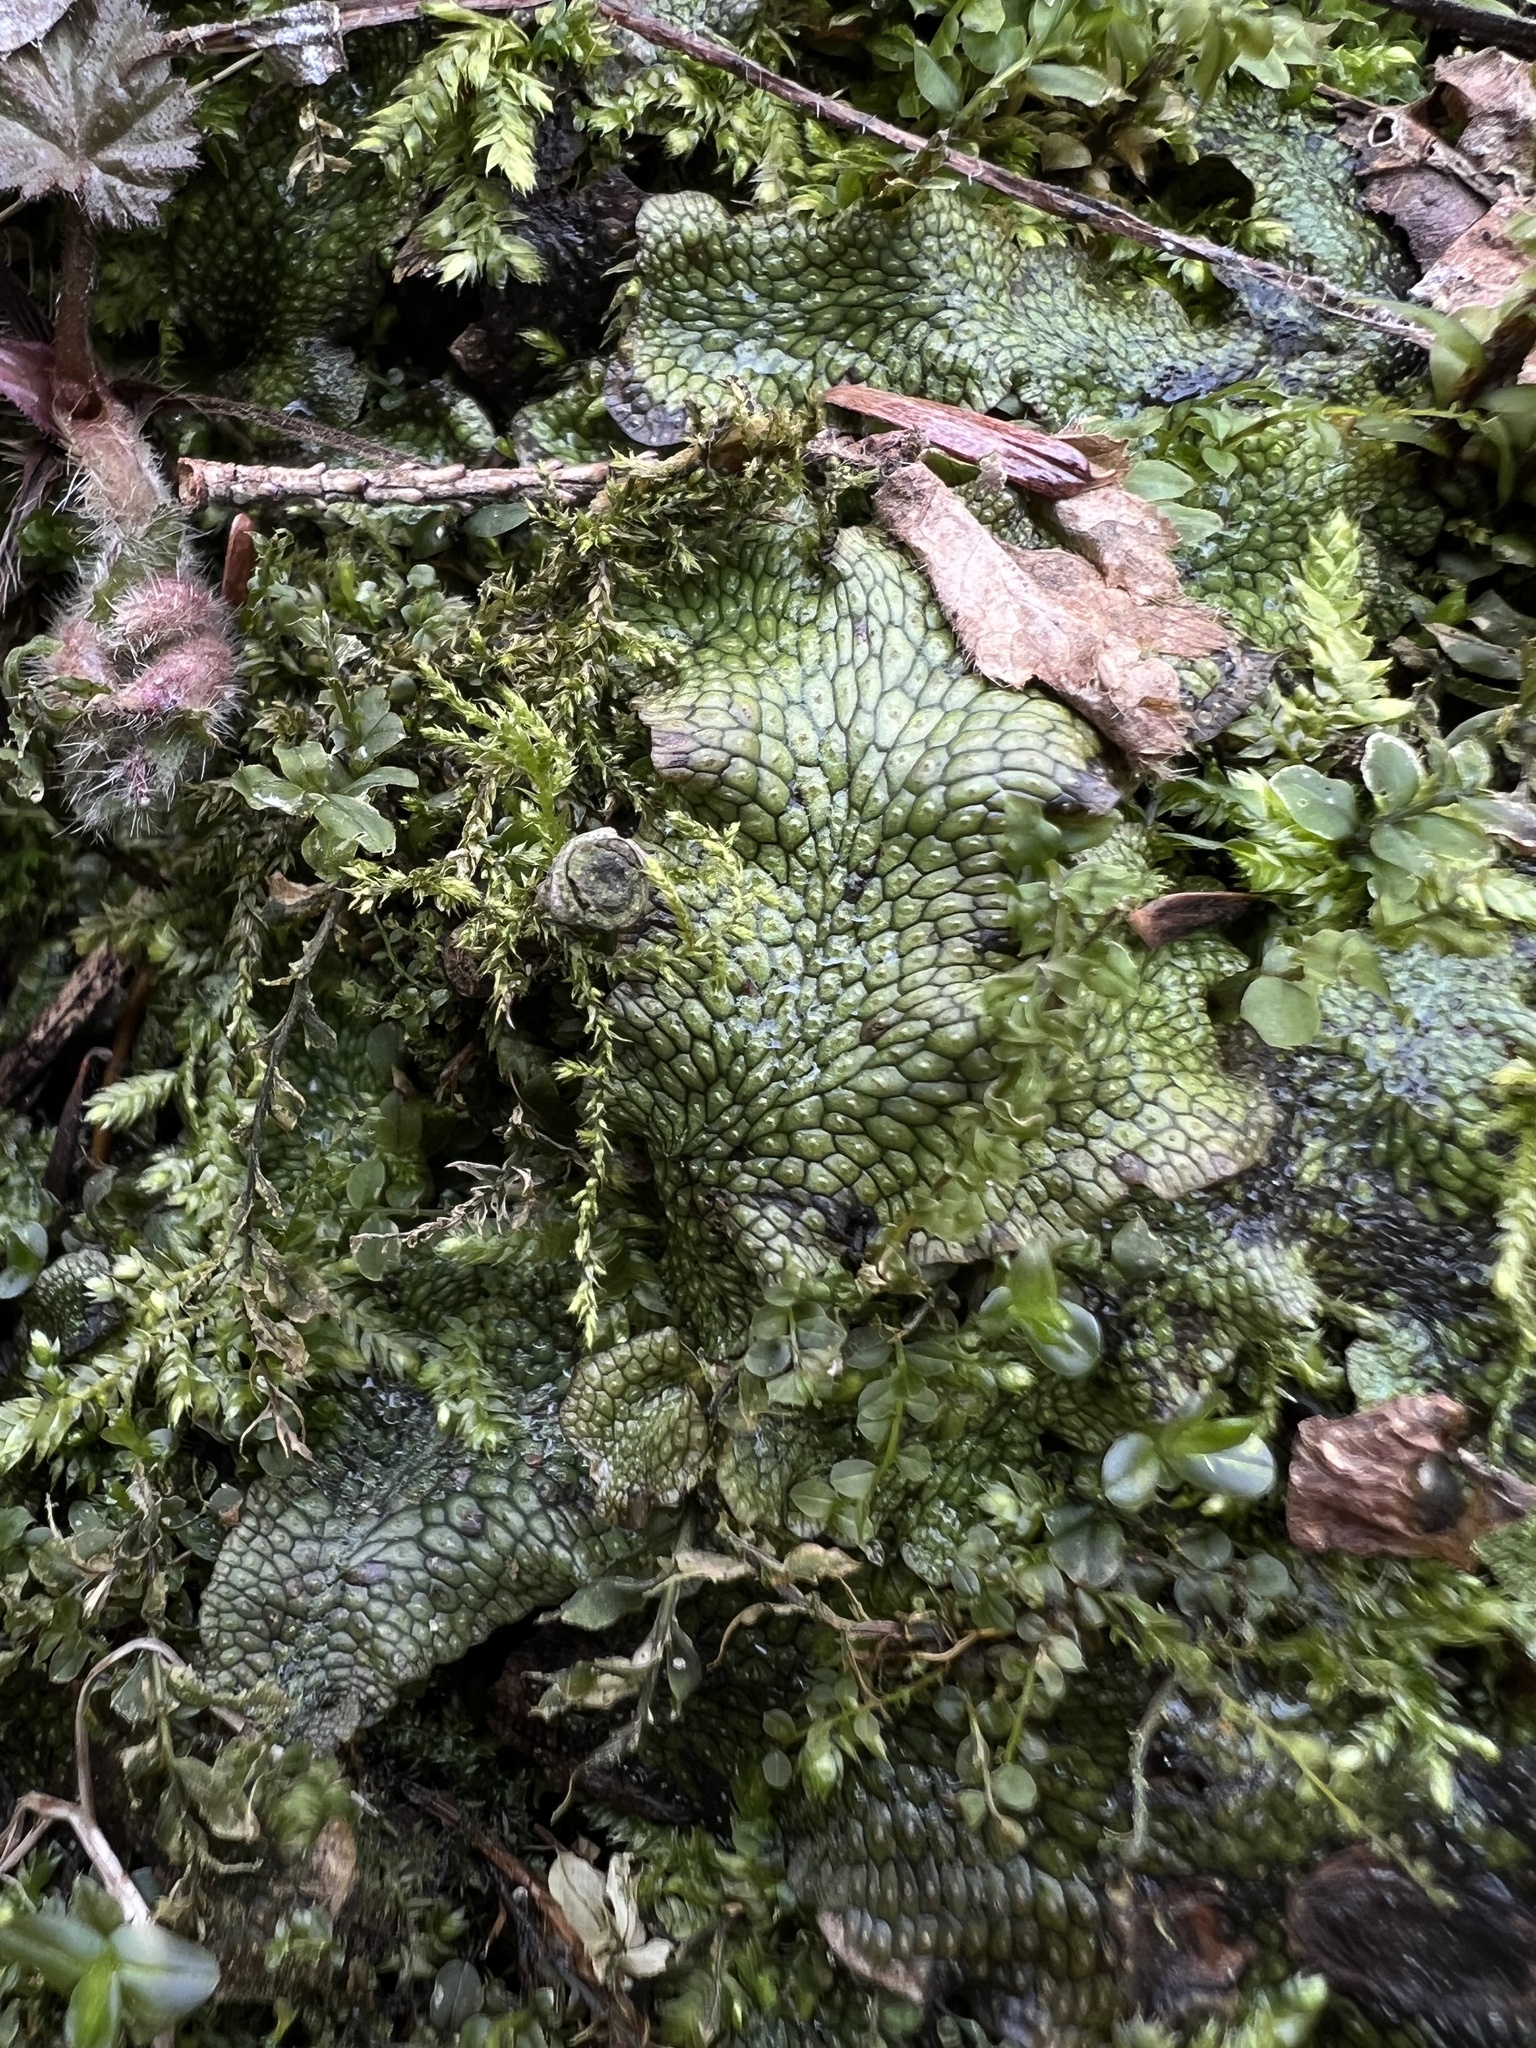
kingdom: Plantae
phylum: Marchantiophyta
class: Marchantiopsida
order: Marchantiales
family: Conocephalaceae
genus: Conocephalum
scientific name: Conocephalum salebrosum
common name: Cat-tongue liverwort
